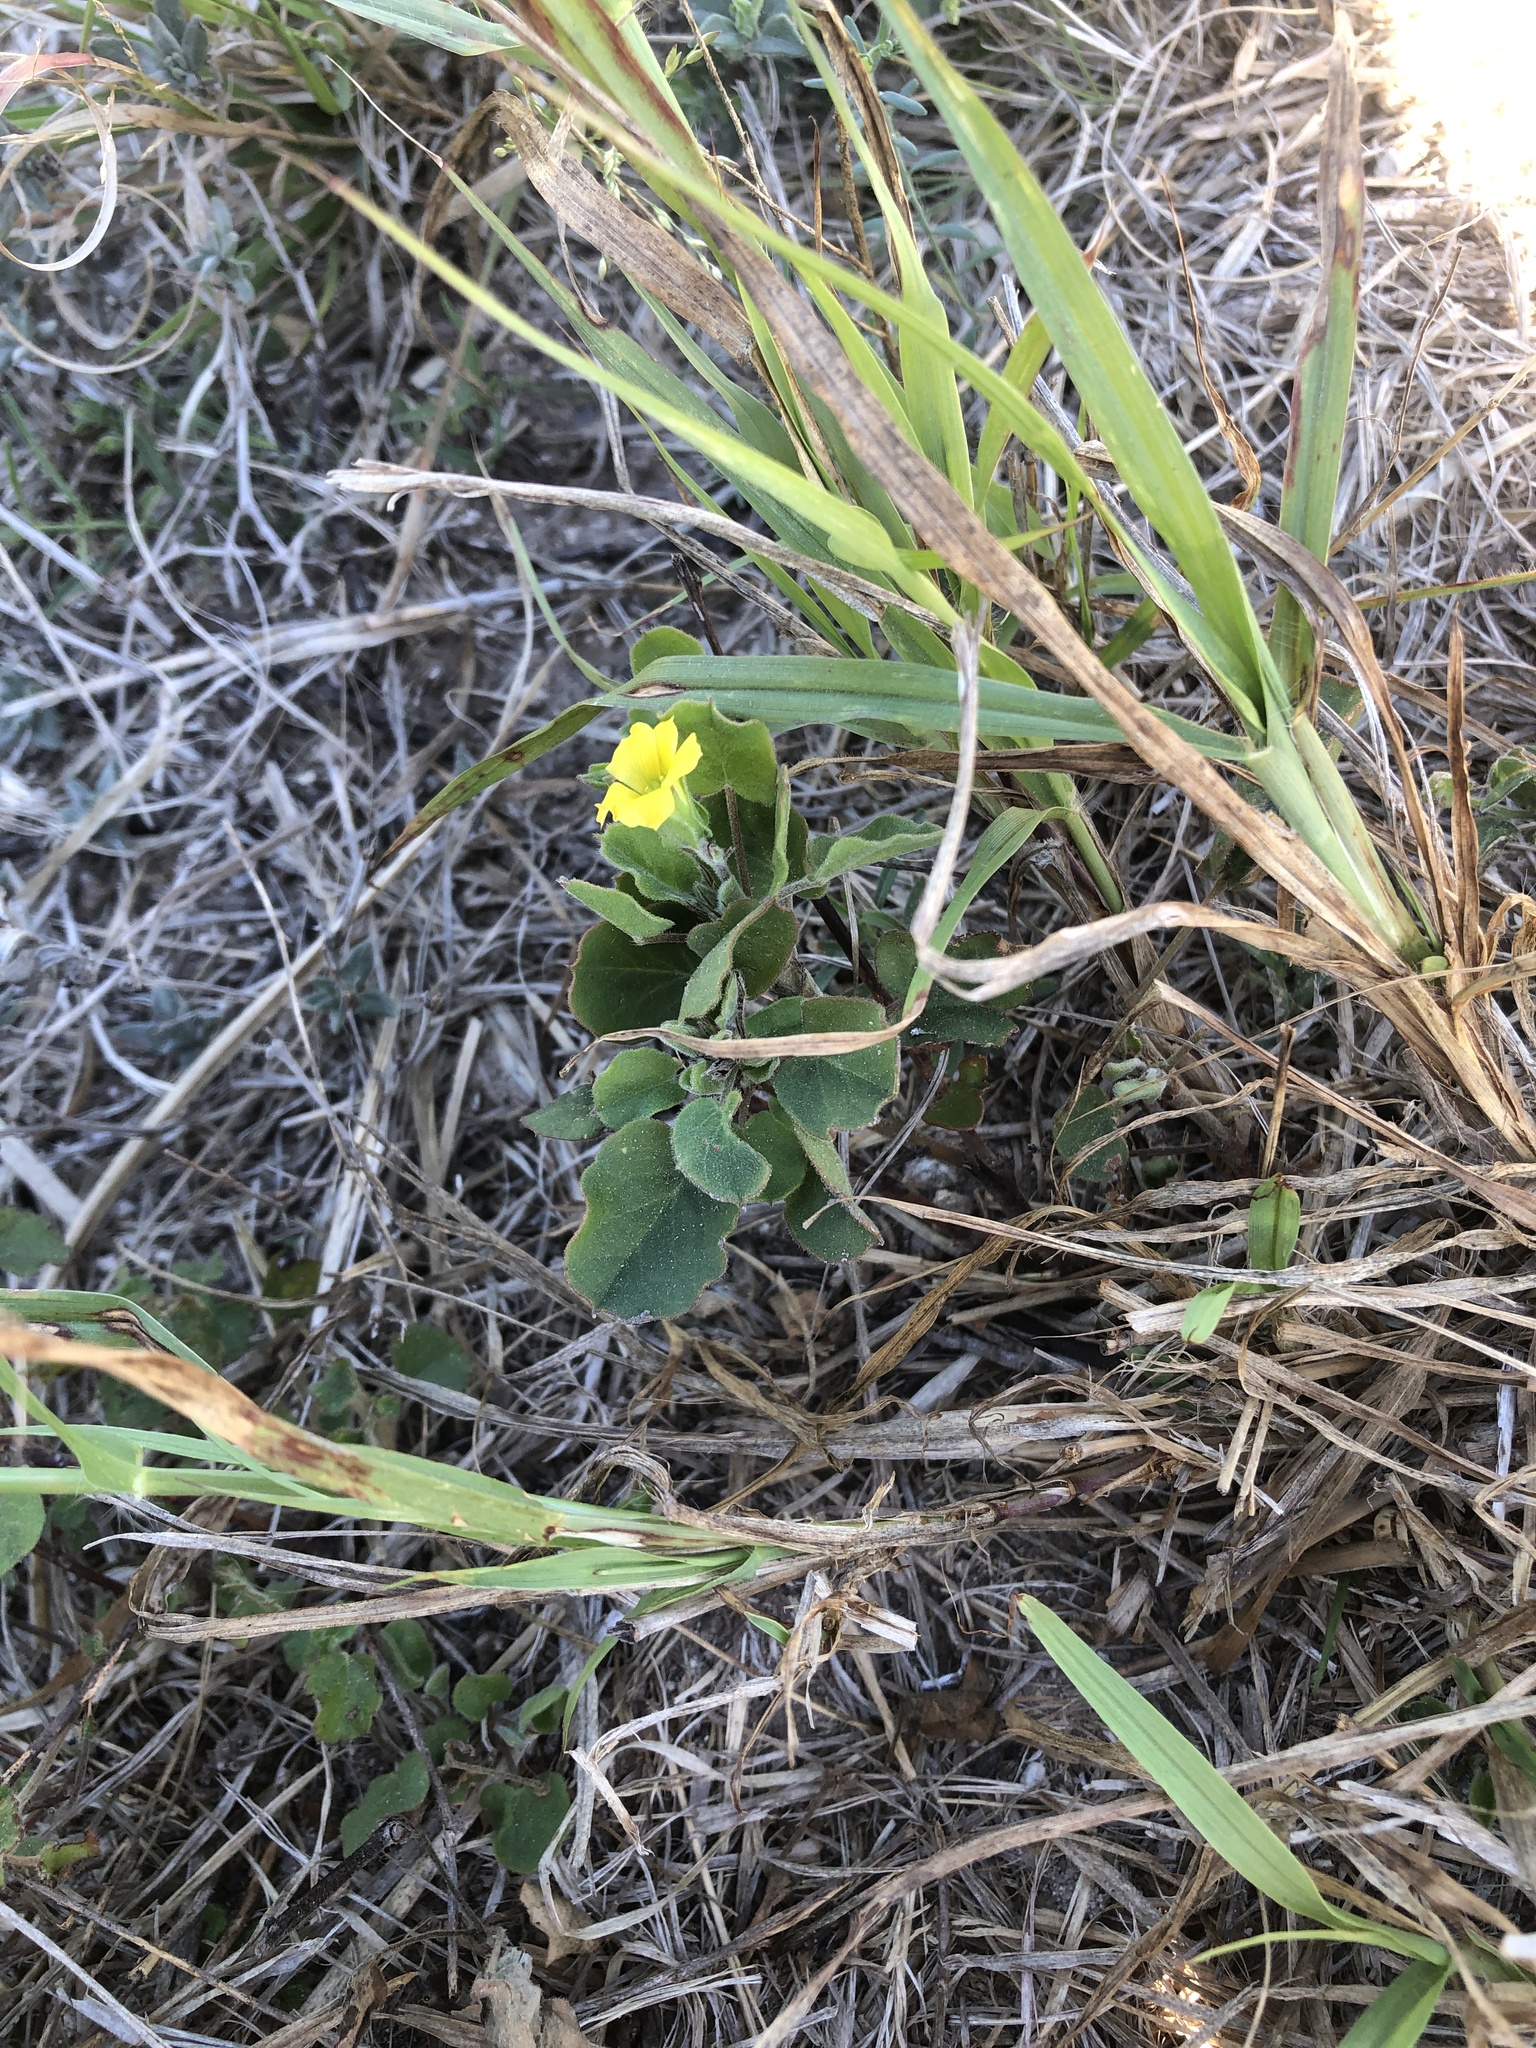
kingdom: Plantae
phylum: Tracheophyta
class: Magnoliopsida
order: Oxalidales
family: Oxalidaceae
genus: Oxalis
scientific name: Oxalis dichondrifolia
